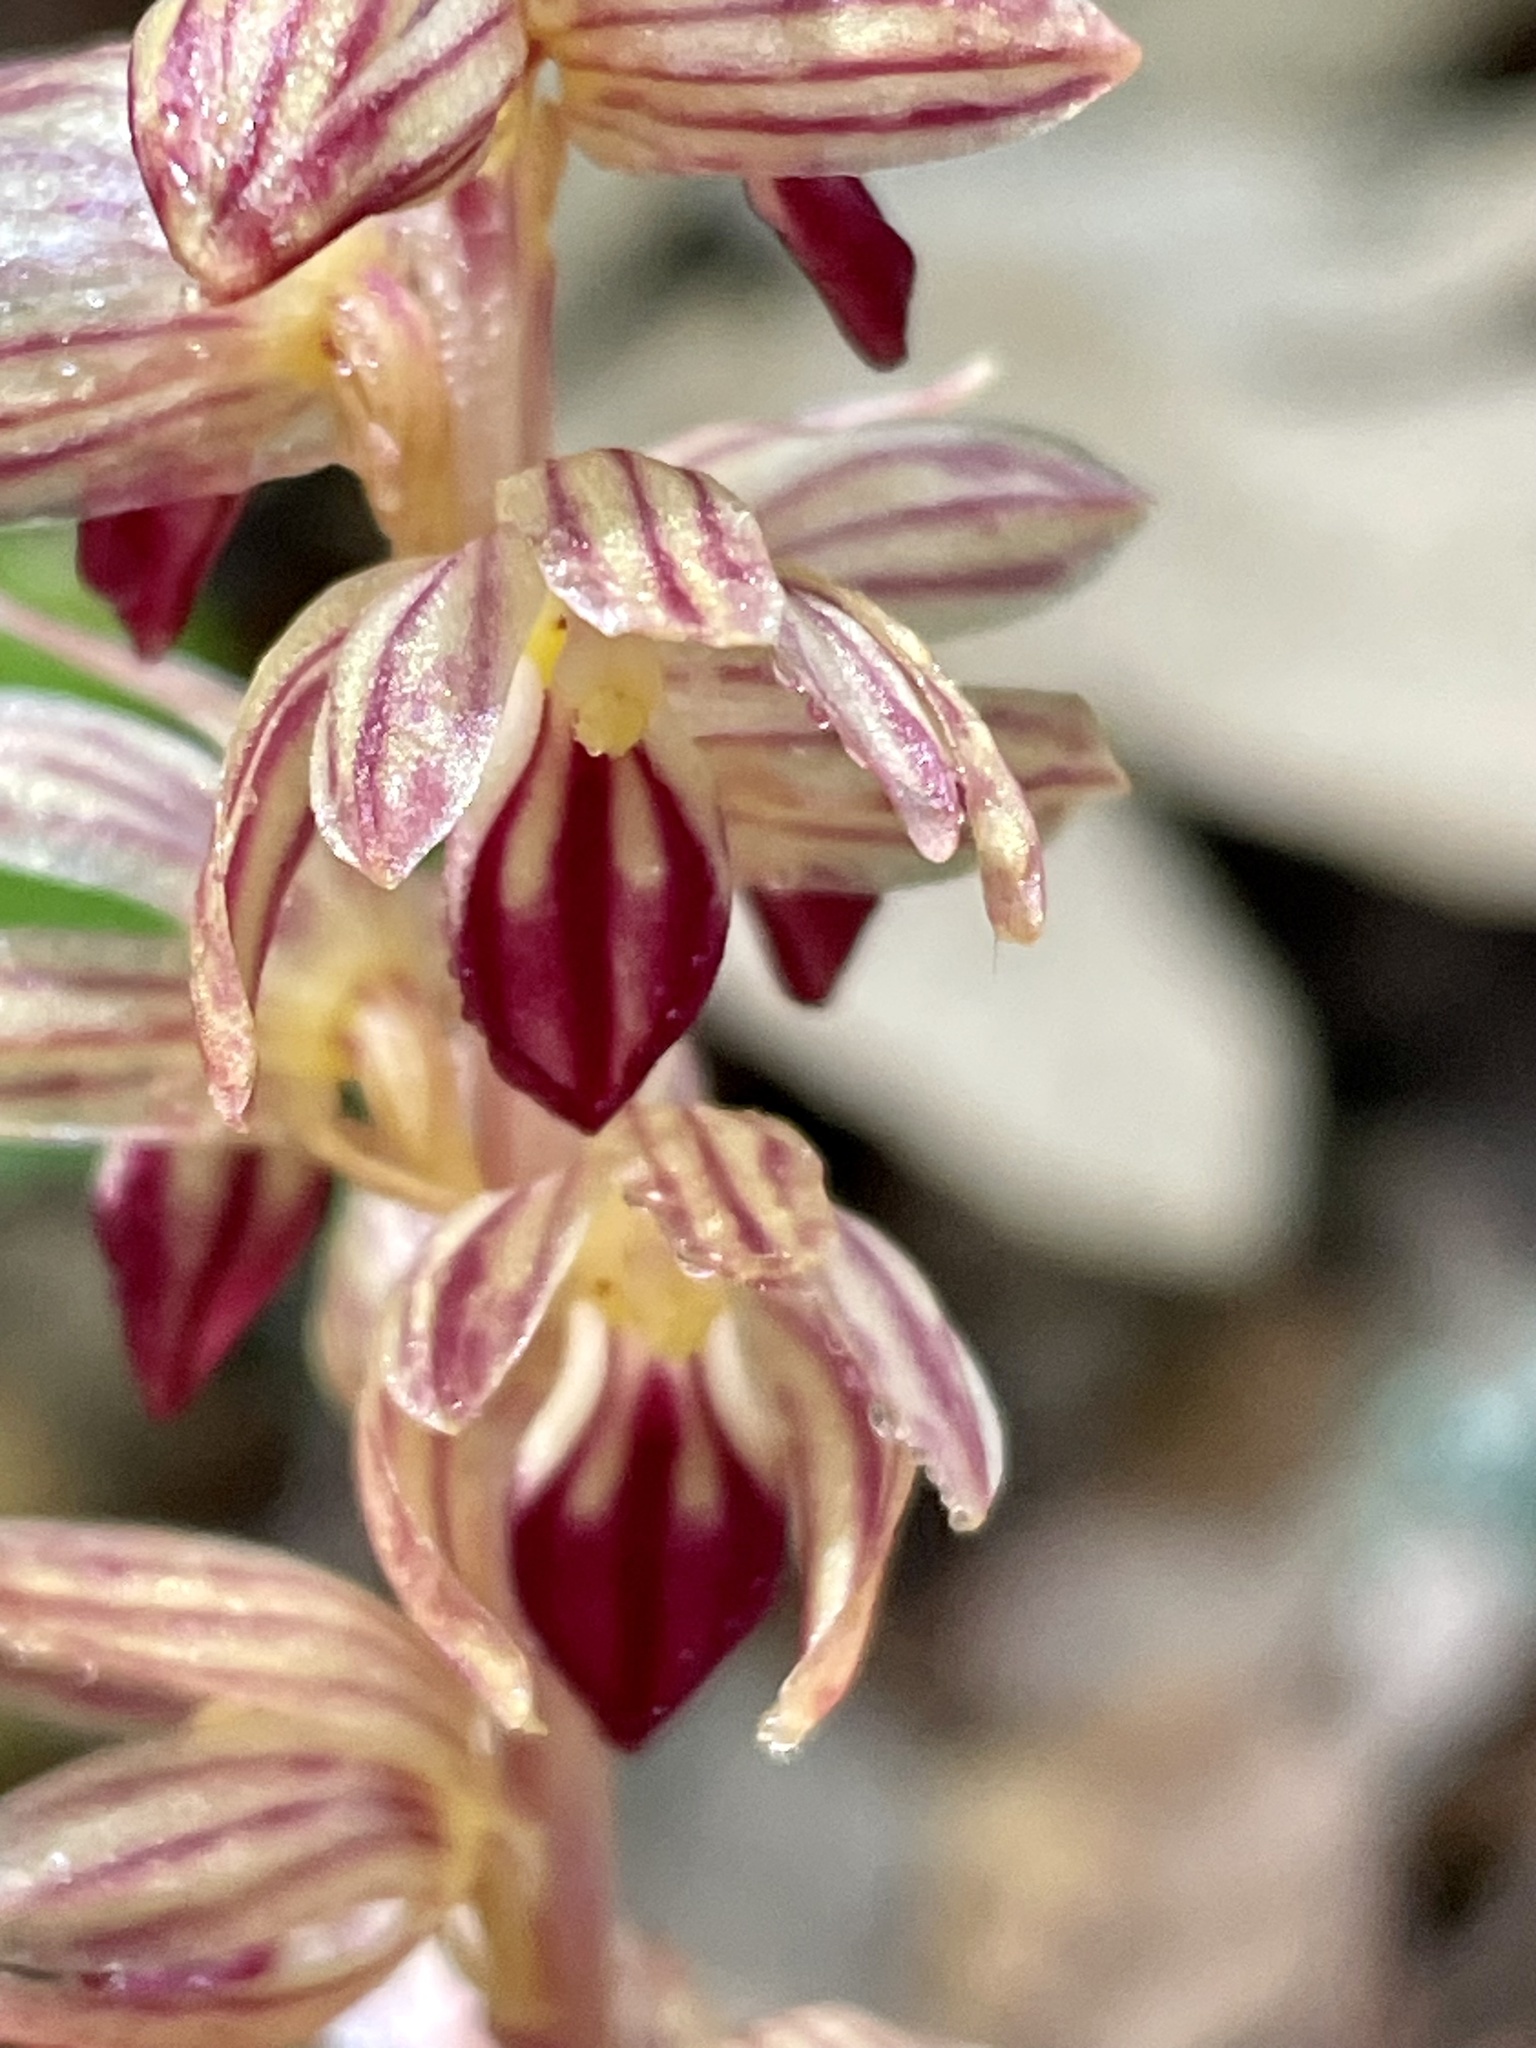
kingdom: Plantae
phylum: Tracheophyta
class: Liliopsida
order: Asparagales
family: Orchidaceae
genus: Corallorhiza
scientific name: Corallorhiza striata
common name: Hooded coralroot
